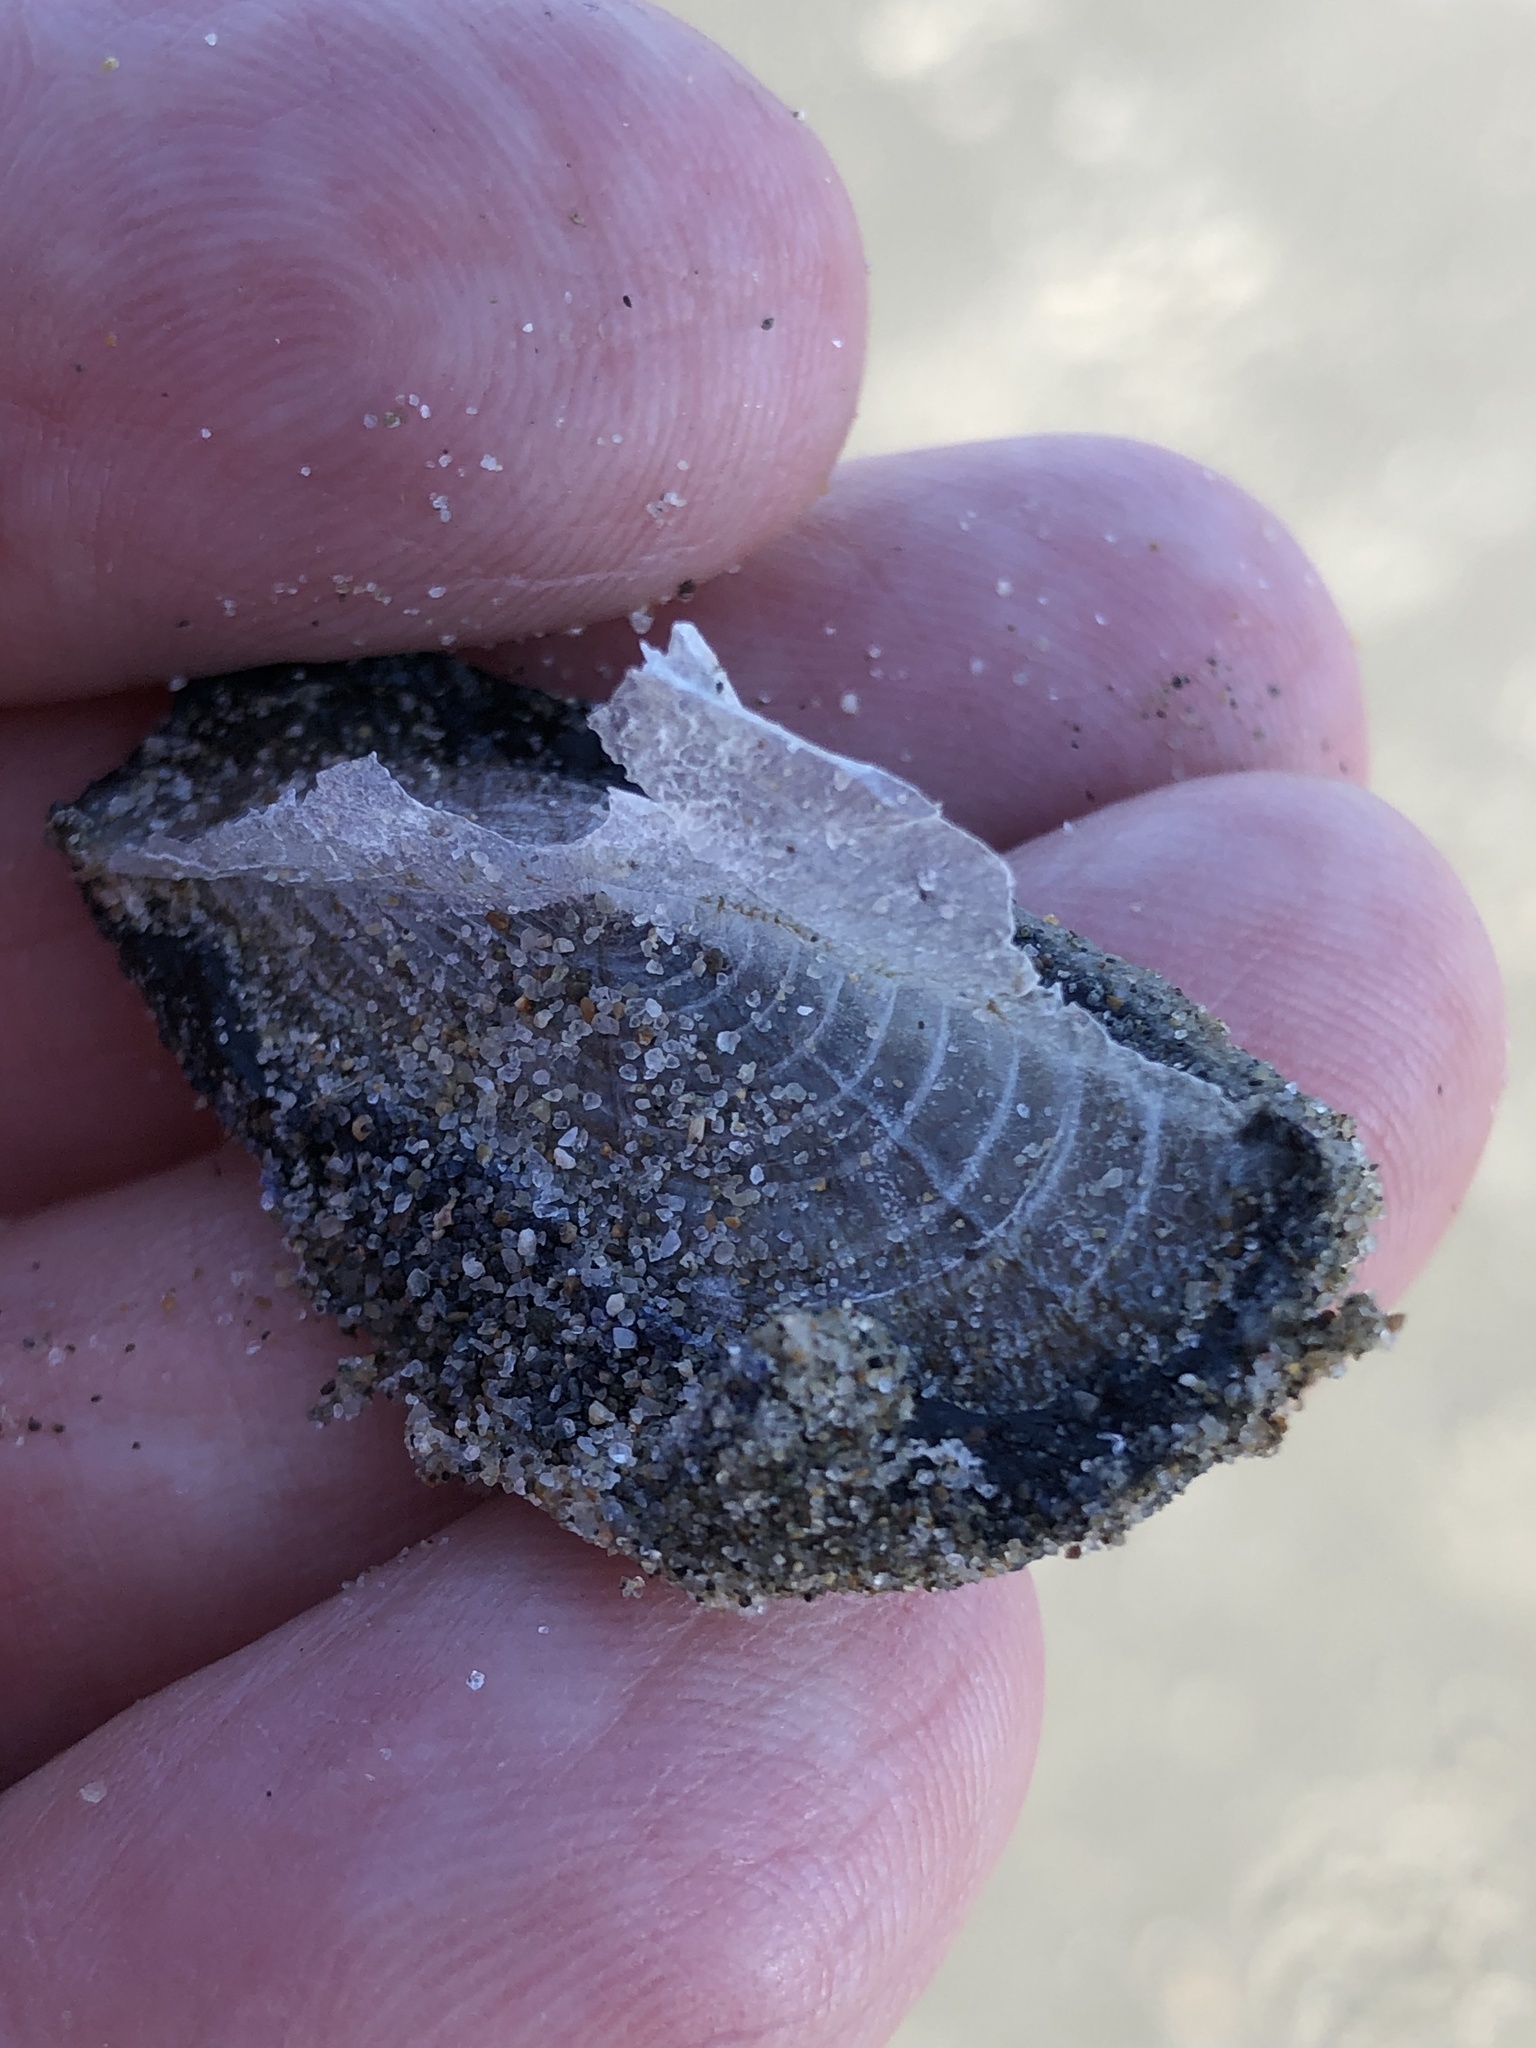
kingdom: Animalia
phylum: Cnidaria
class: Hydrozoa
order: Anthoathecata
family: Porpitidae
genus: Velella
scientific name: Velella velella
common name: By-the-wind-sailor
